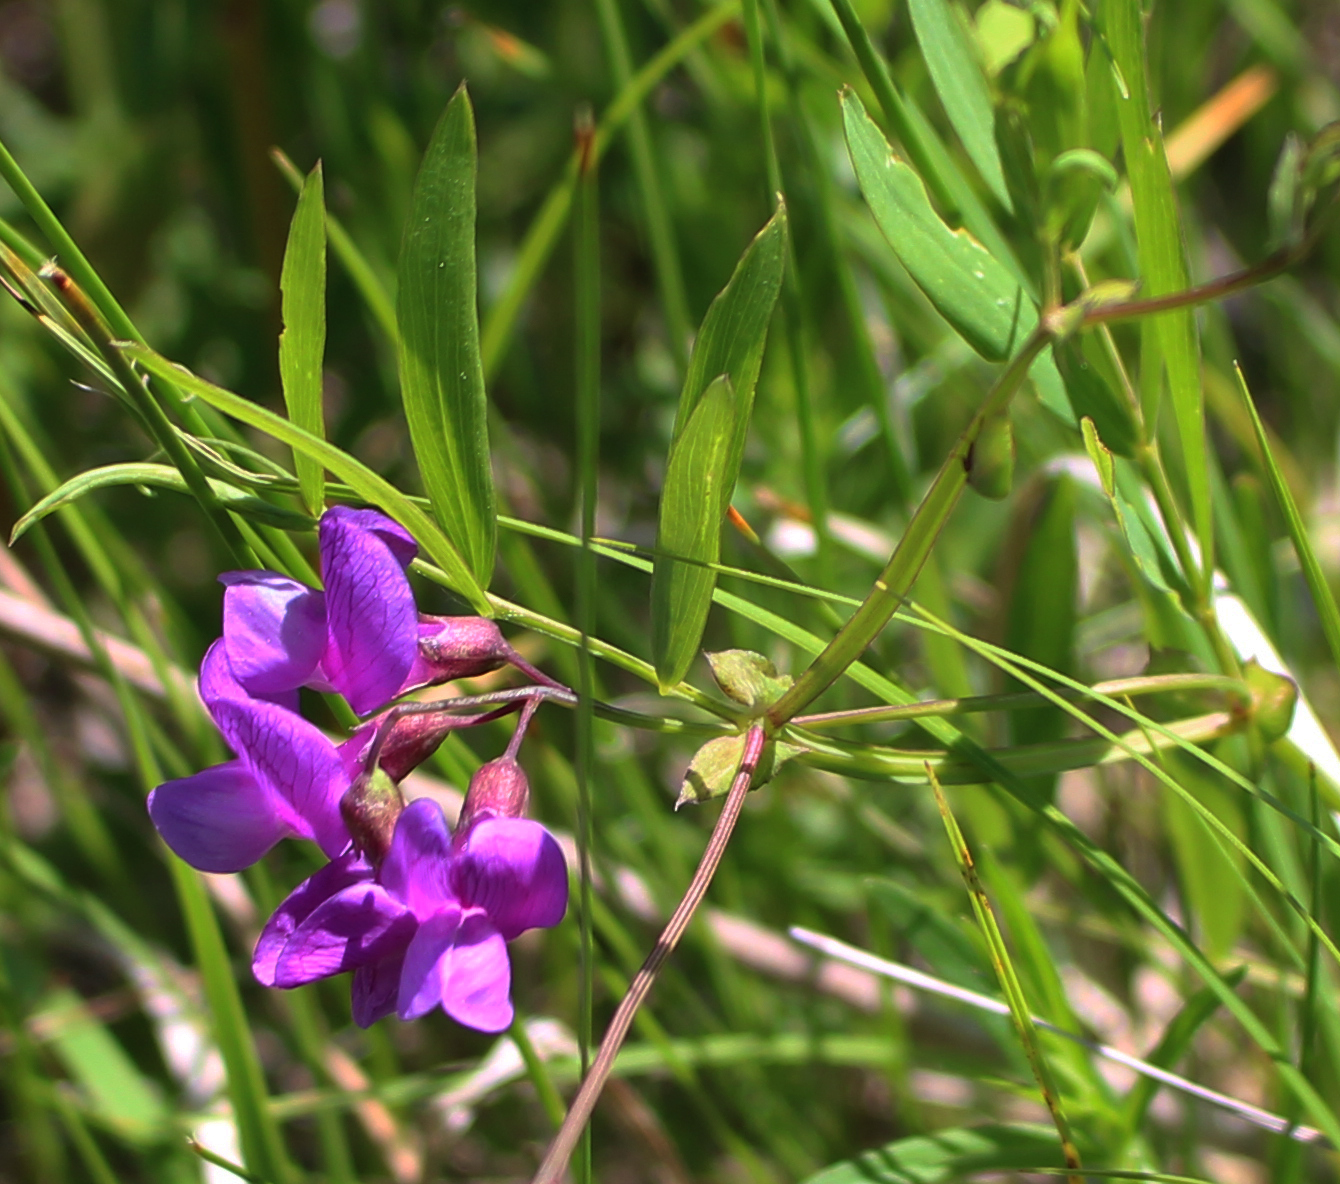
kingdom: Plantae
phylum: Tracheophyta
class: Magnoliopsida
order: Fabales
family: Fabaceae
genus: Lathyrus
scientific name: Lathyrus palustris
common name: Marsh pea
